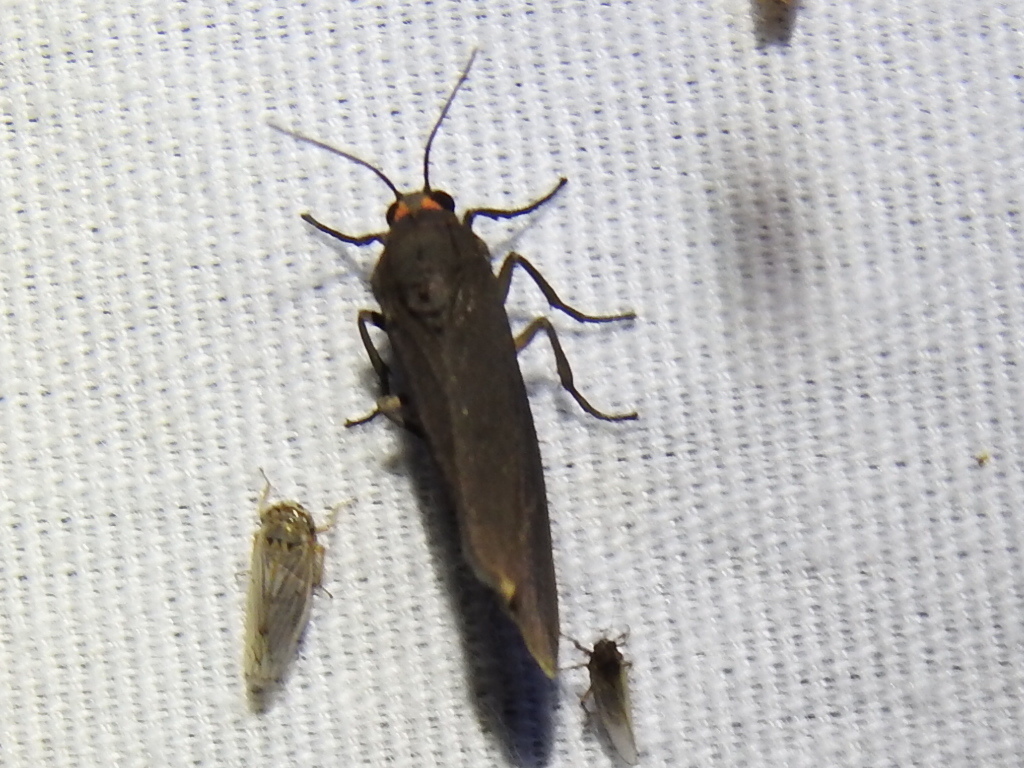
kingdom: Animalia
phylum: Arthropoda
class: Insecta
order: Lepidoptera
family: Erebidae
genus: Virbia
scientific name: Virbia laeta
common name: Joyful holomelina moth
